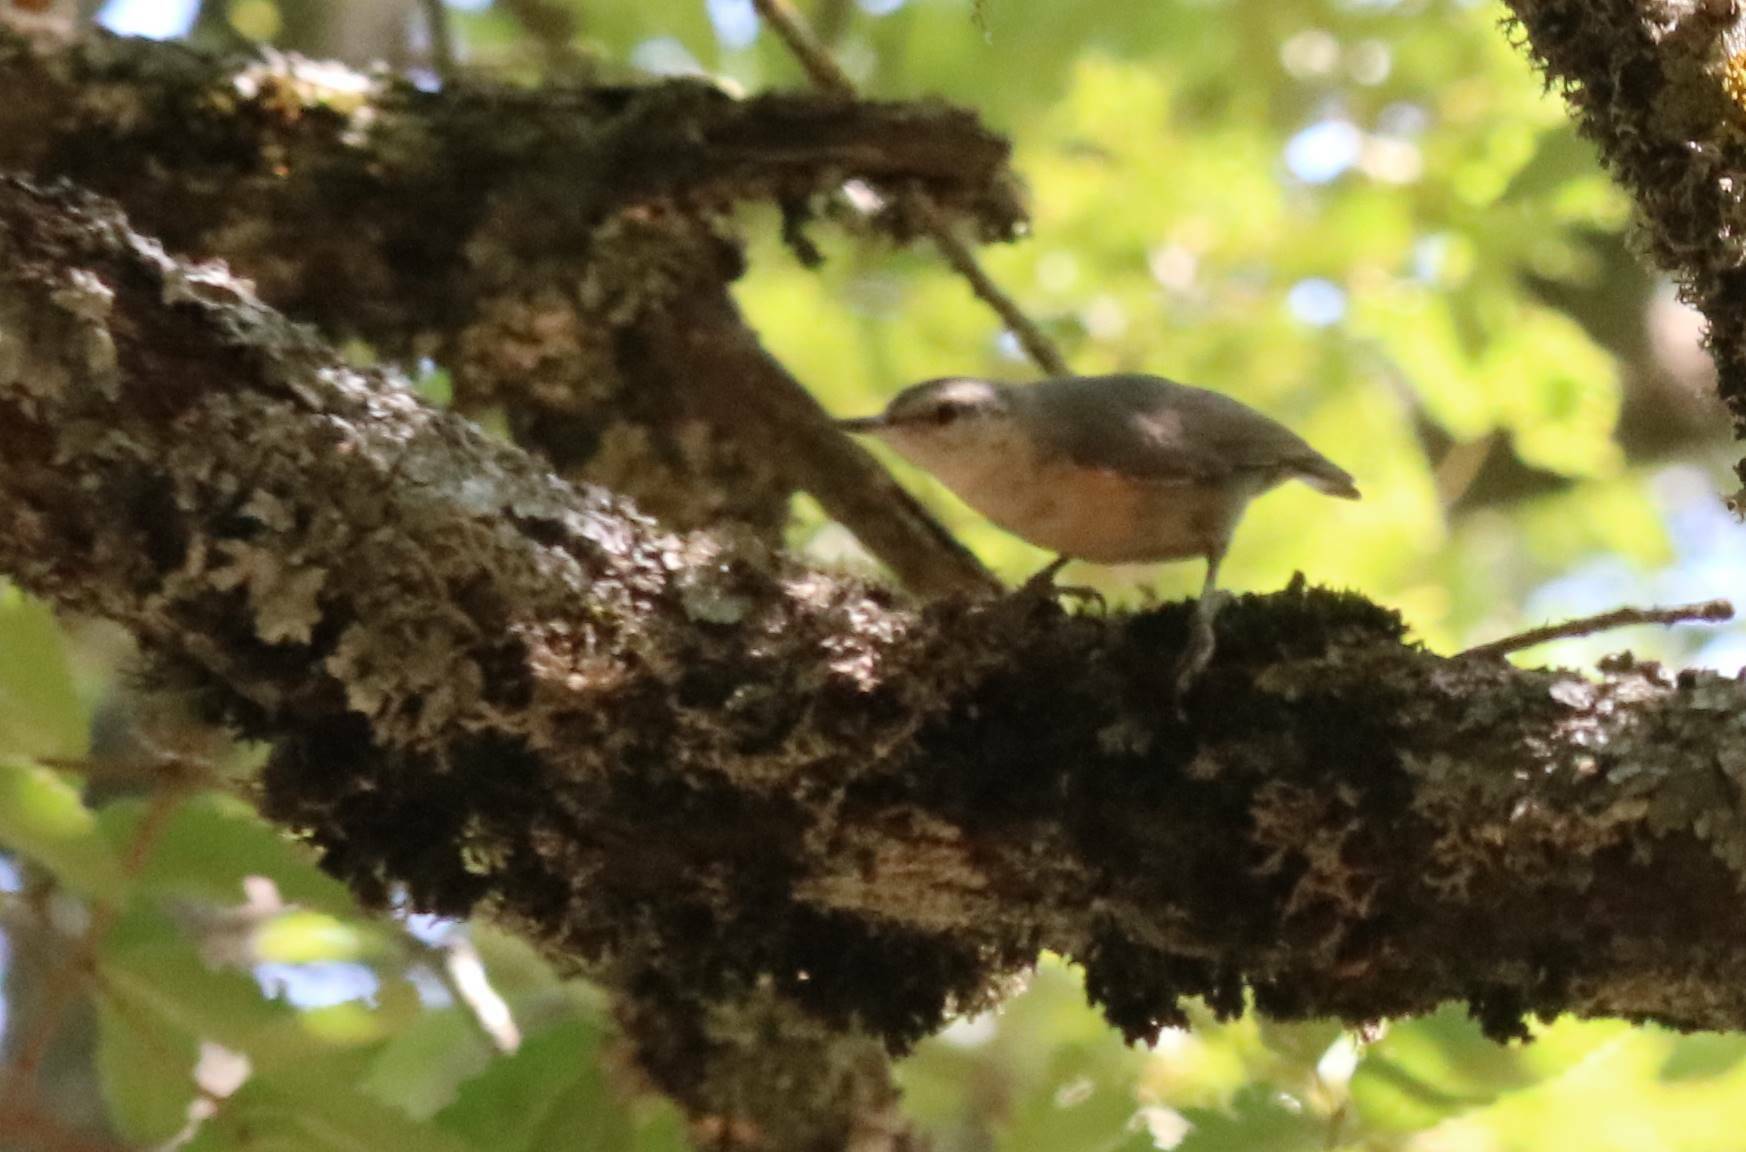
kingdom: Animalia
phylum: Chordata
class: Aves
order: Passeriformes
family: Sittidae
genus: Sitta
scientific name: Sitta ledanti
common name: Algerian nuthatch
